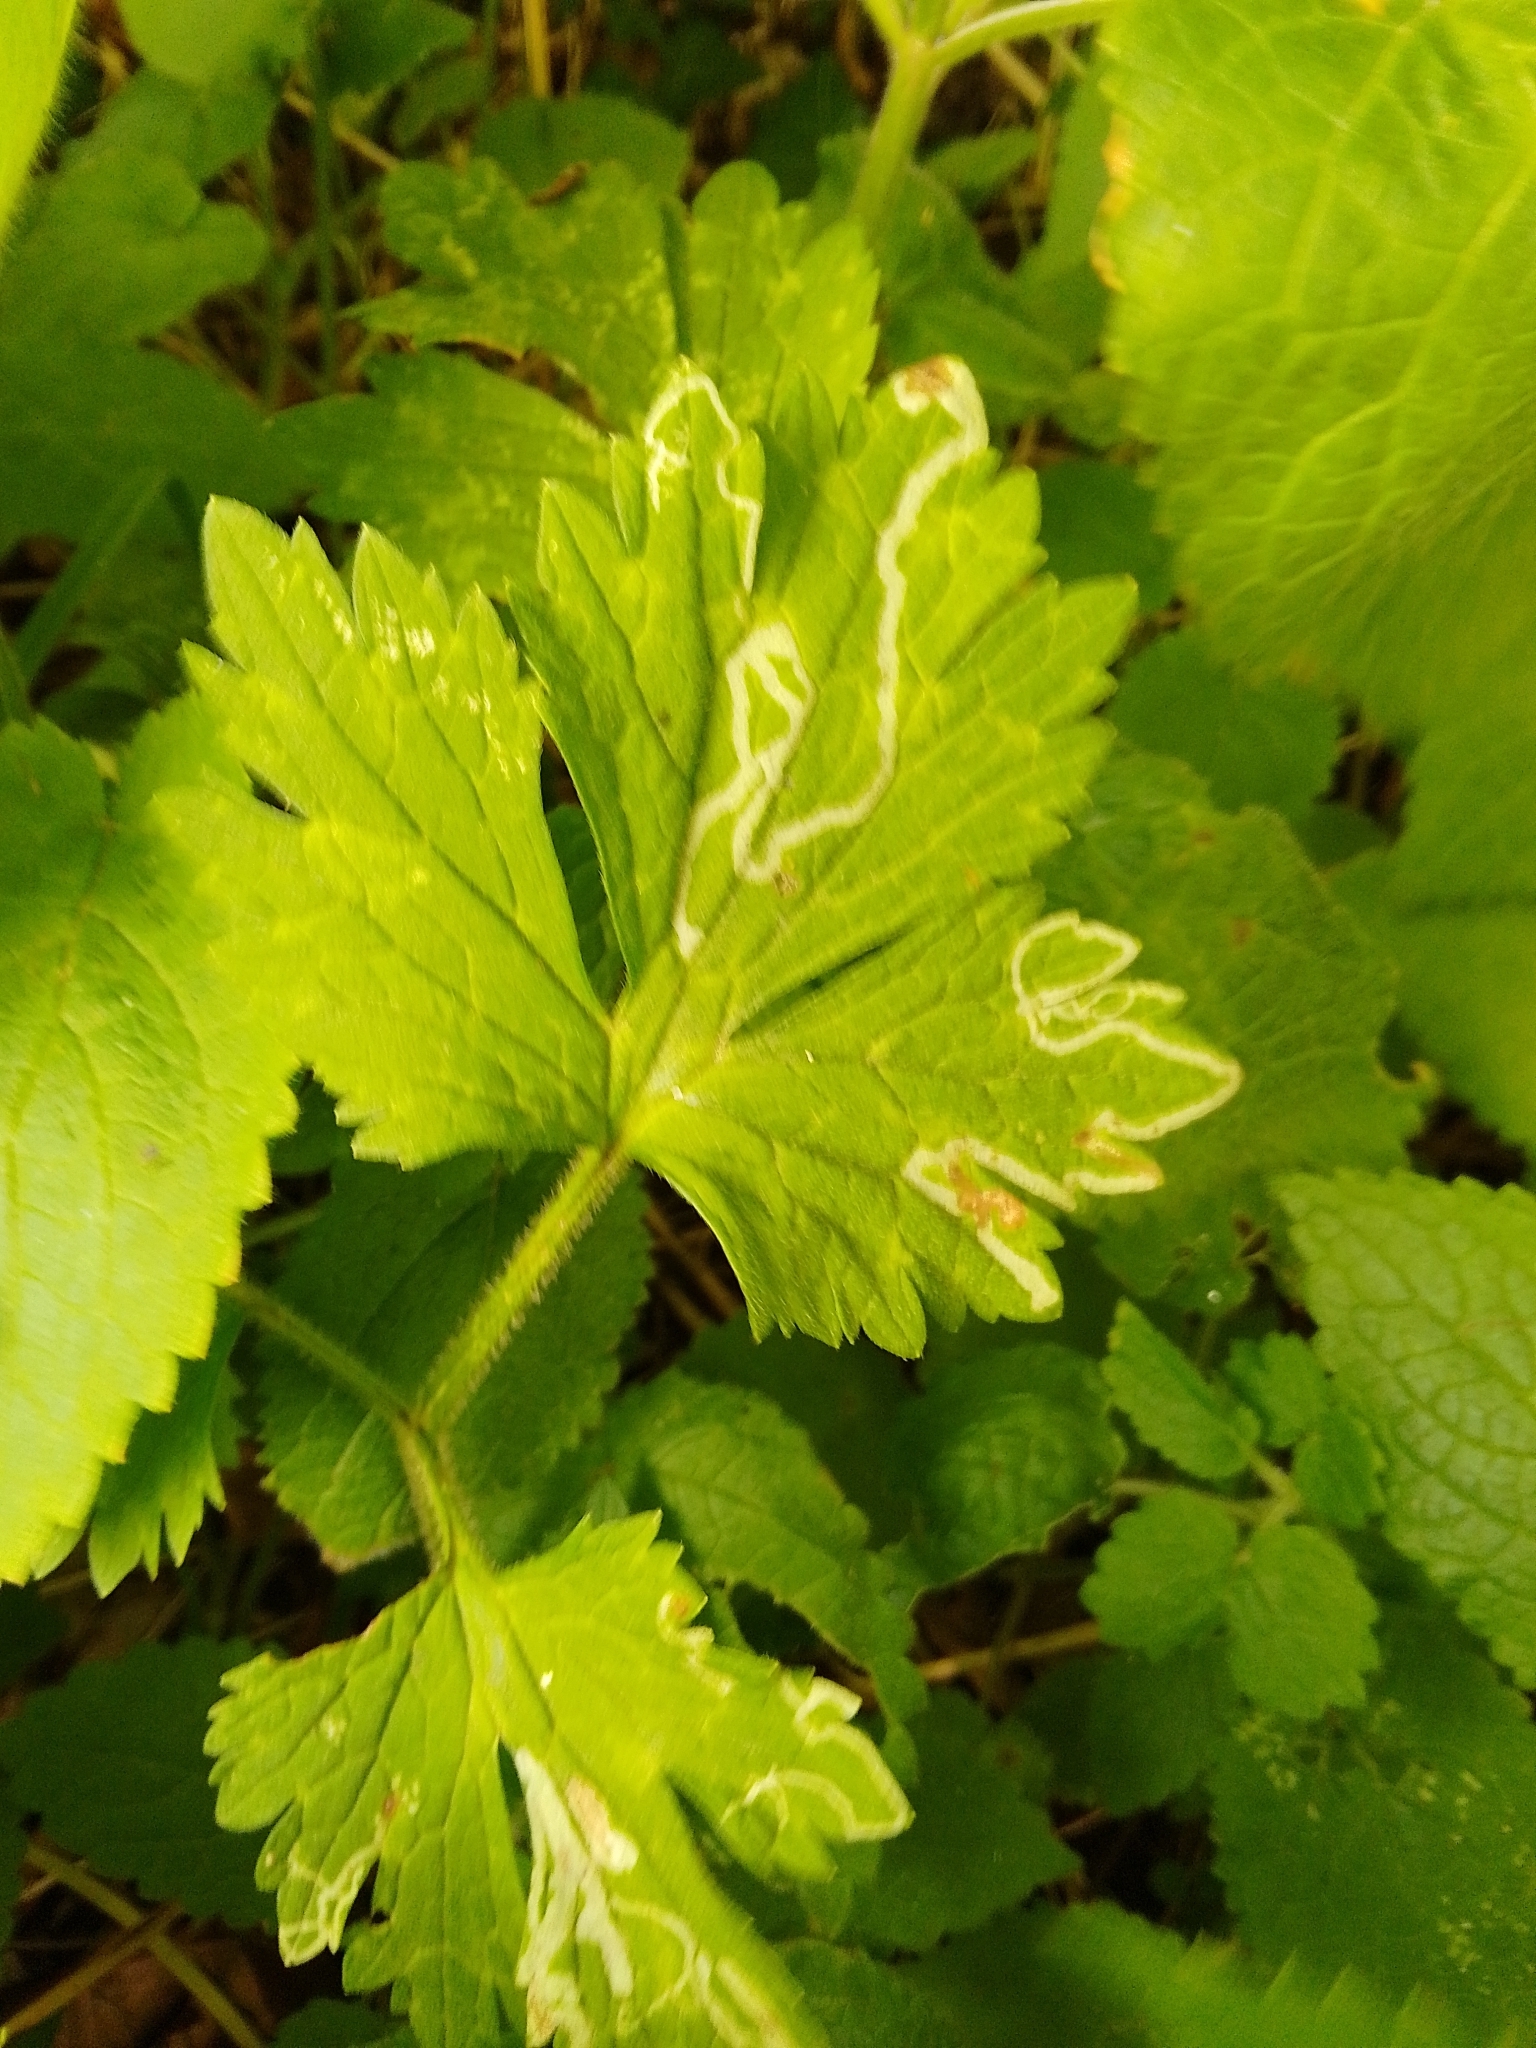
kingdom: Animalia
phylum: Arthropoda
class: Insecta
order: Diptera
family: Agromyzidae
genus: Phytomyza
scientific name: Phytomyza ranunculi
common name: Leaf-miner fly
